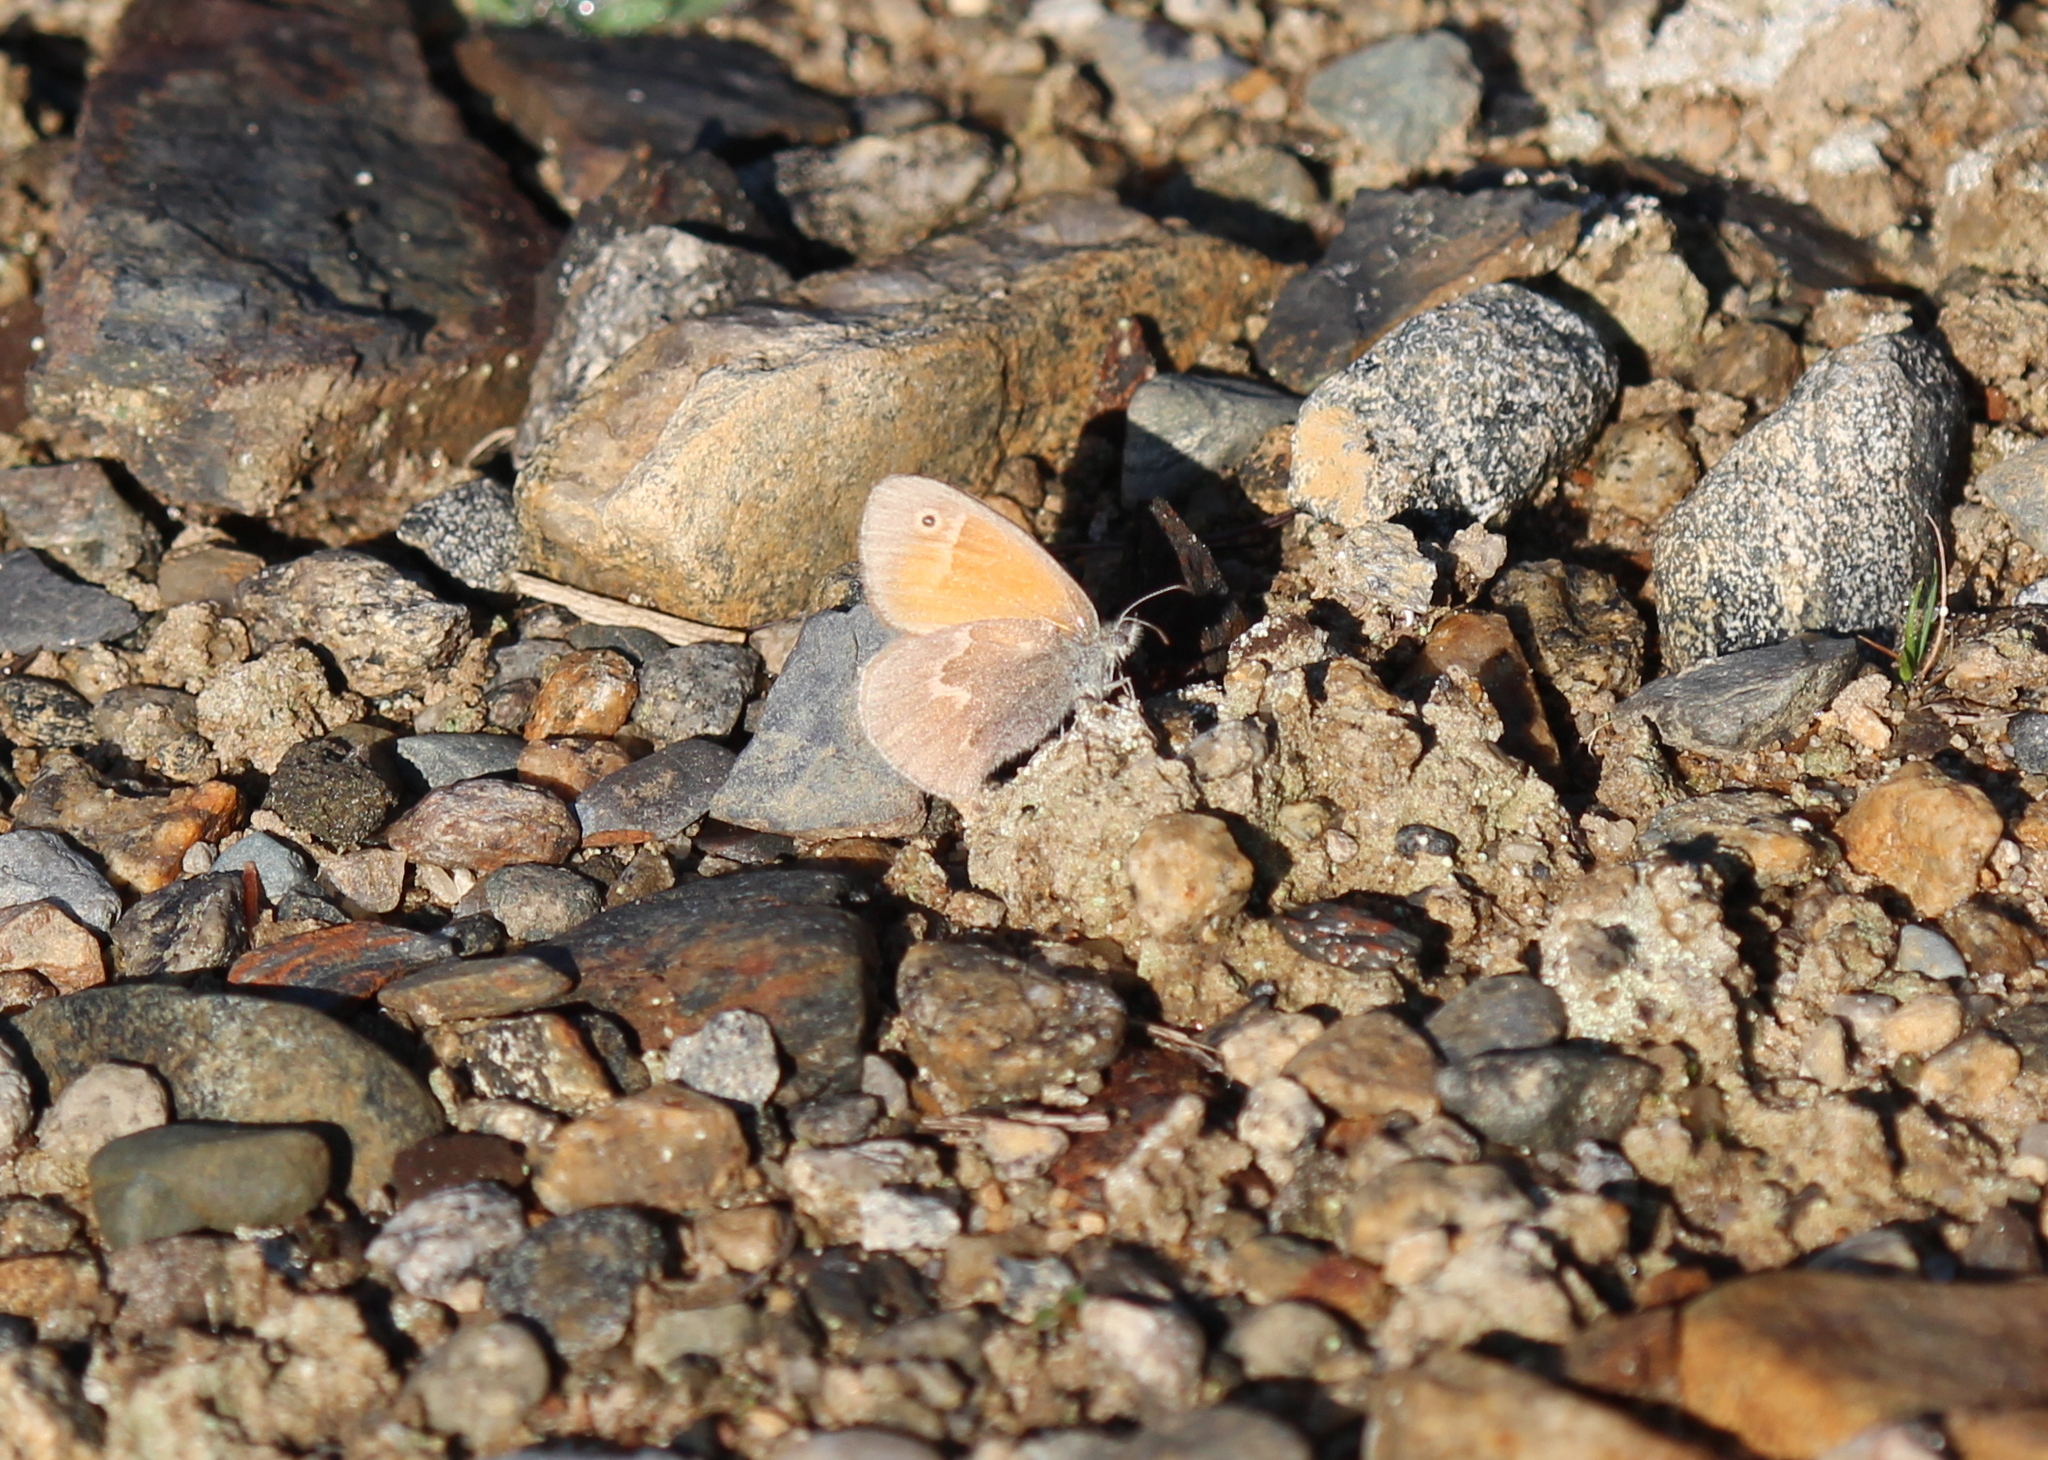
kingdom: Animalia
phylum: Arthropoda
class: Insecta
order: Lepidoptera
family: Nymphalidae
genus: Coenonympha
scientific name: Coenonympha california
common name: Common ringlet
